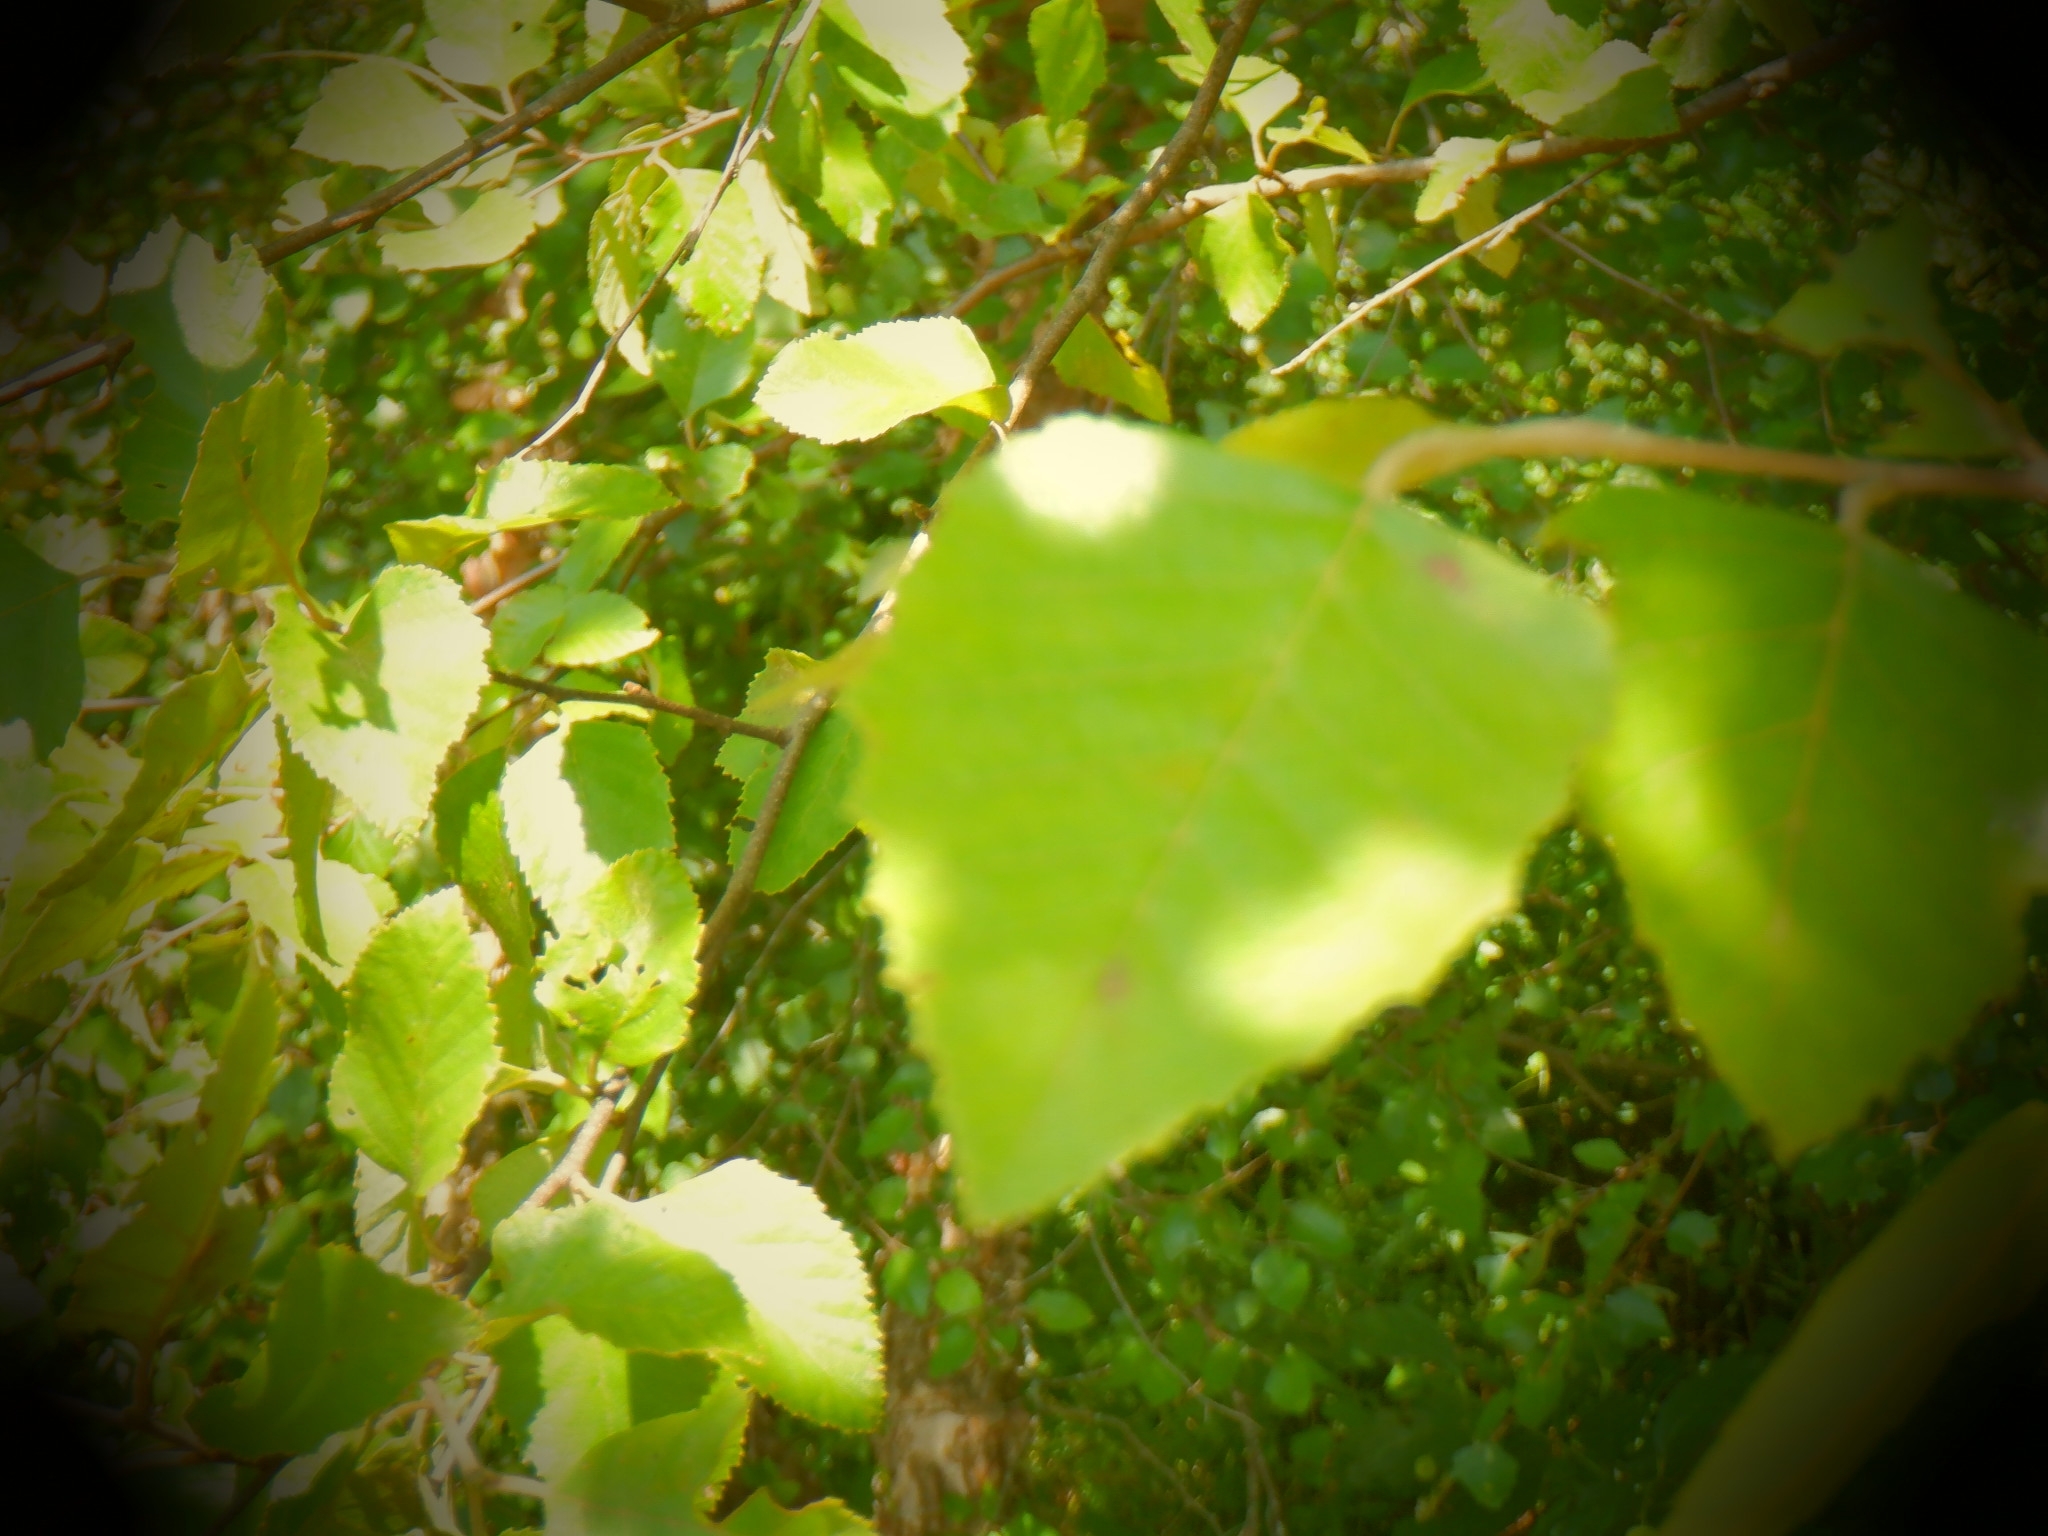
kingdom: Plantae
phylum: Tracheophyta
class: Magnoliopsida
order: Fagales
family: Betulaceae
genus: Betula
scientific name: Betula nigra
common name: Black birch
